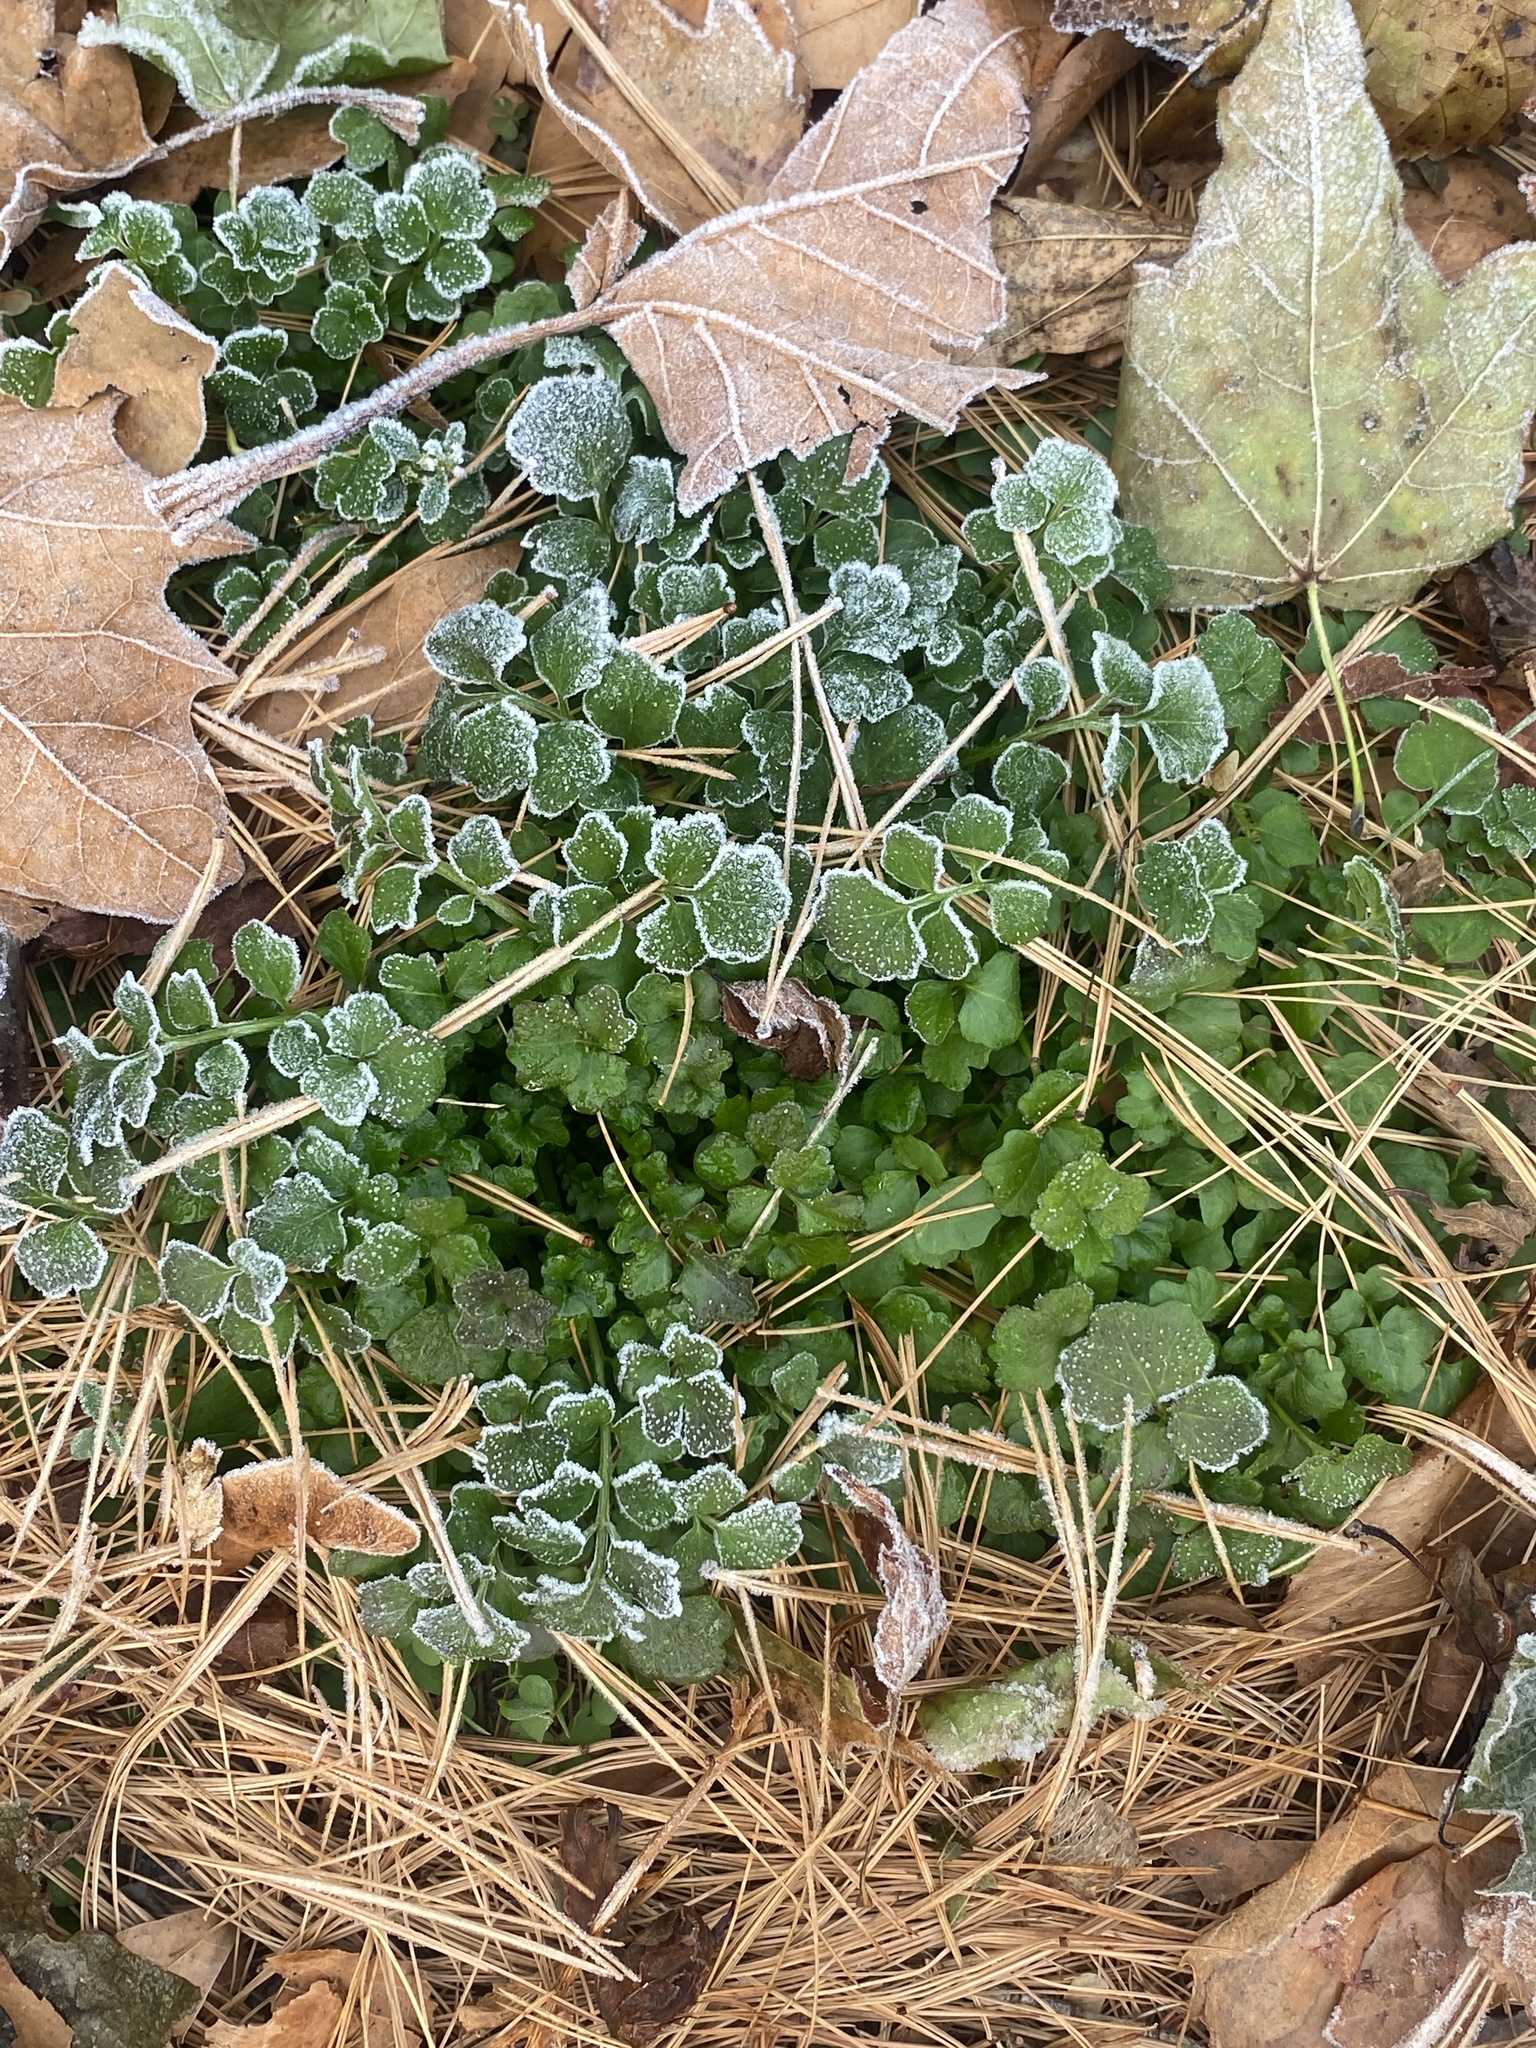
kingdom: Plantae
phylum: Tracheophyta
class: Magnoliopsida
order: Brassicales
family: Brassicaceae
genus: Cardamine
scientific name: Cardamine hirsuta
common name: Hairy bittercress
